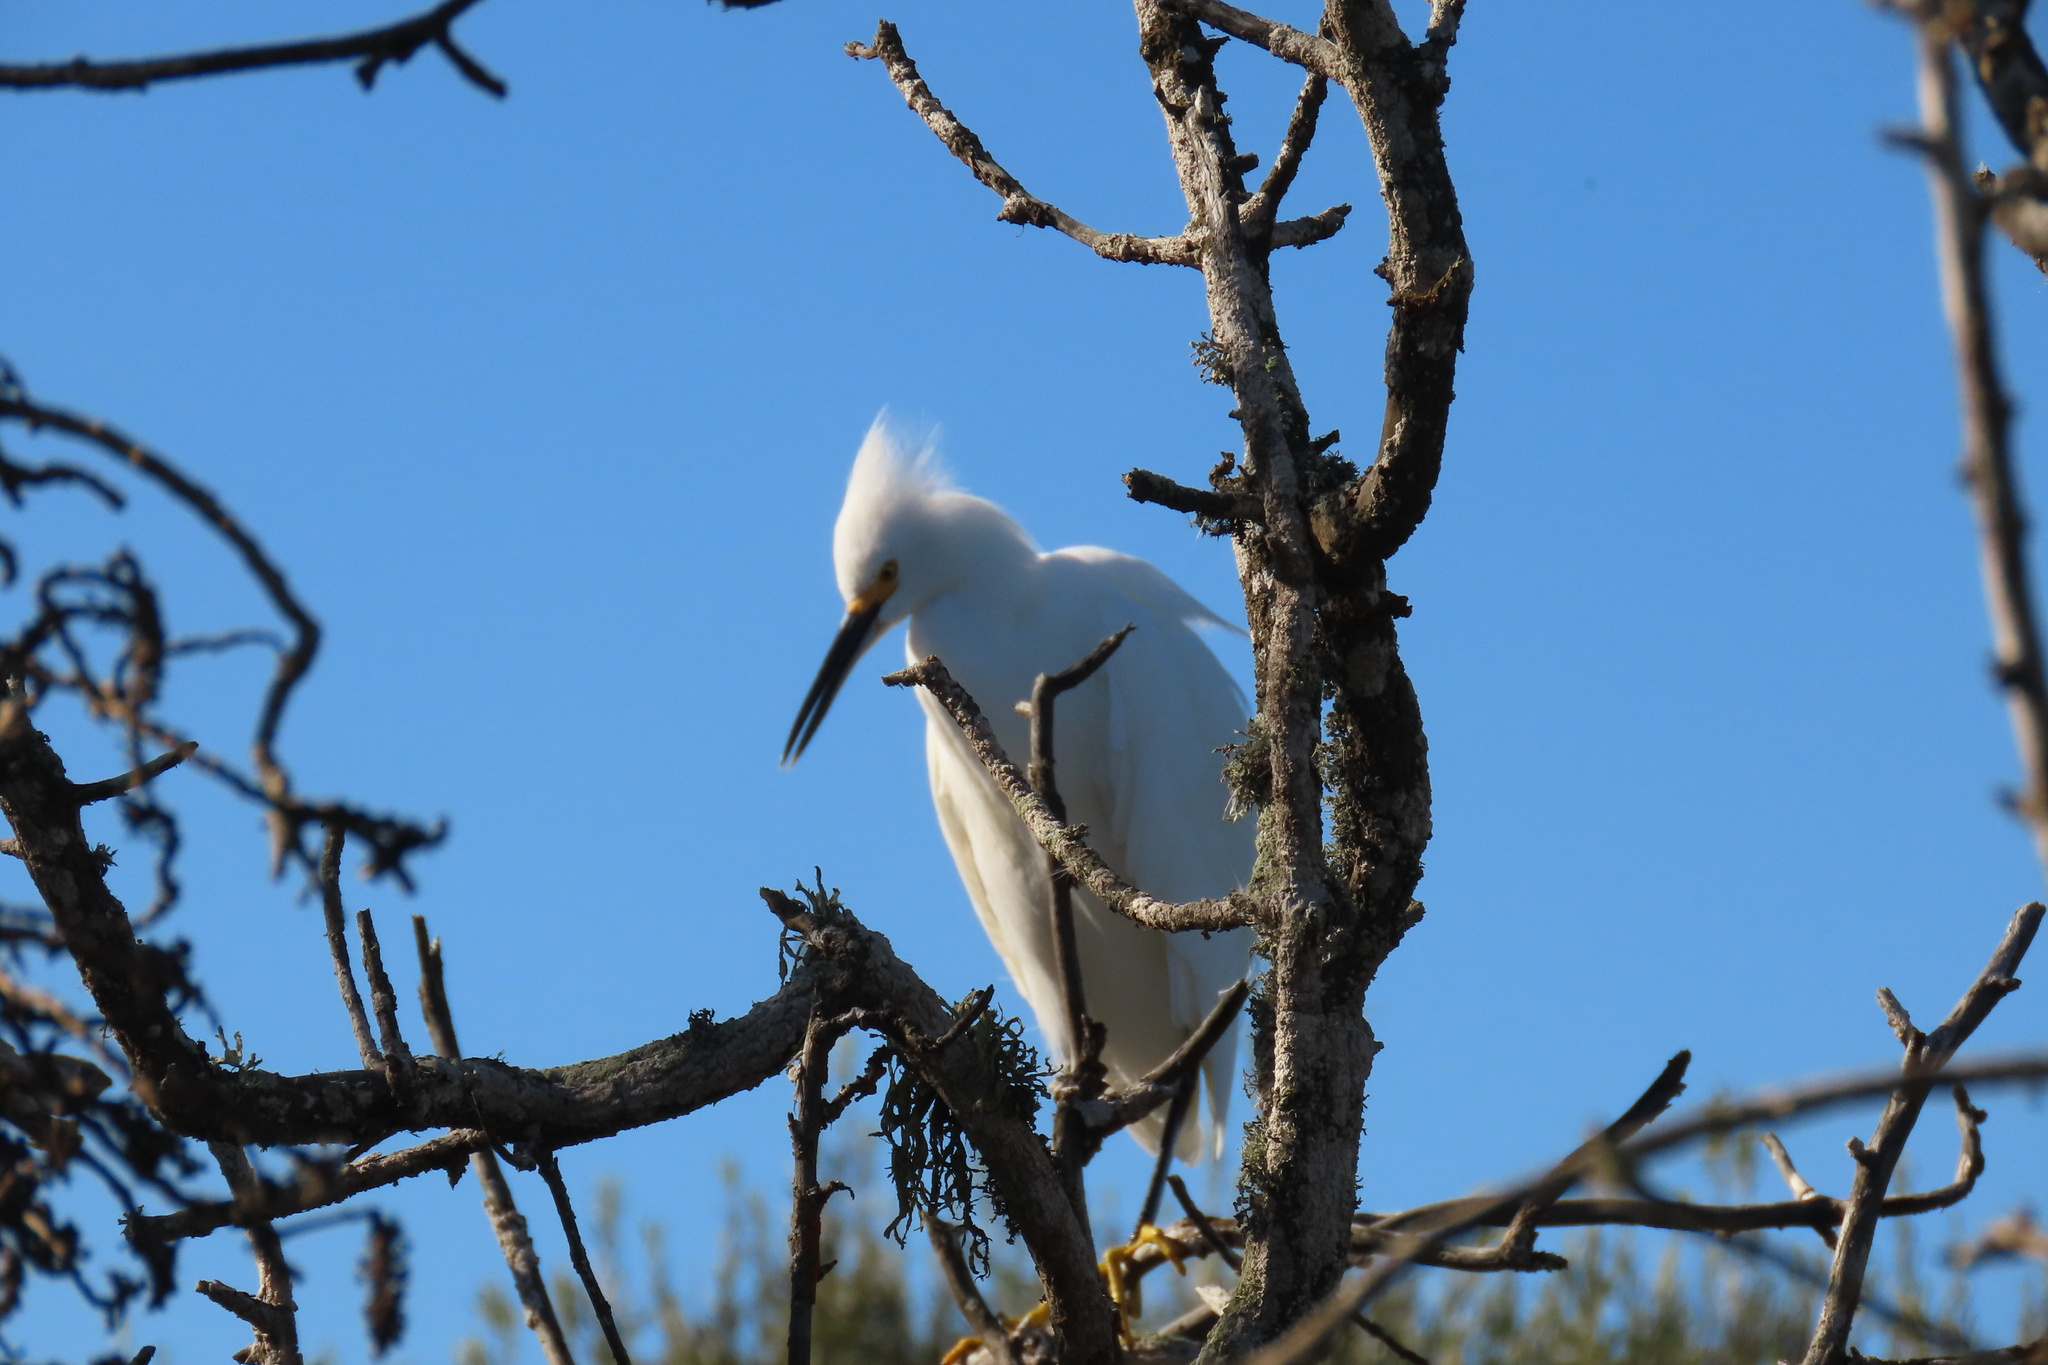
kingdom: Animalia
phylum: Chordata
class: Aves
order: Pelecaniformes
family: Ardeidae
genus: Egretta
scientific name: Egretta thula
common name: Snowy egret
